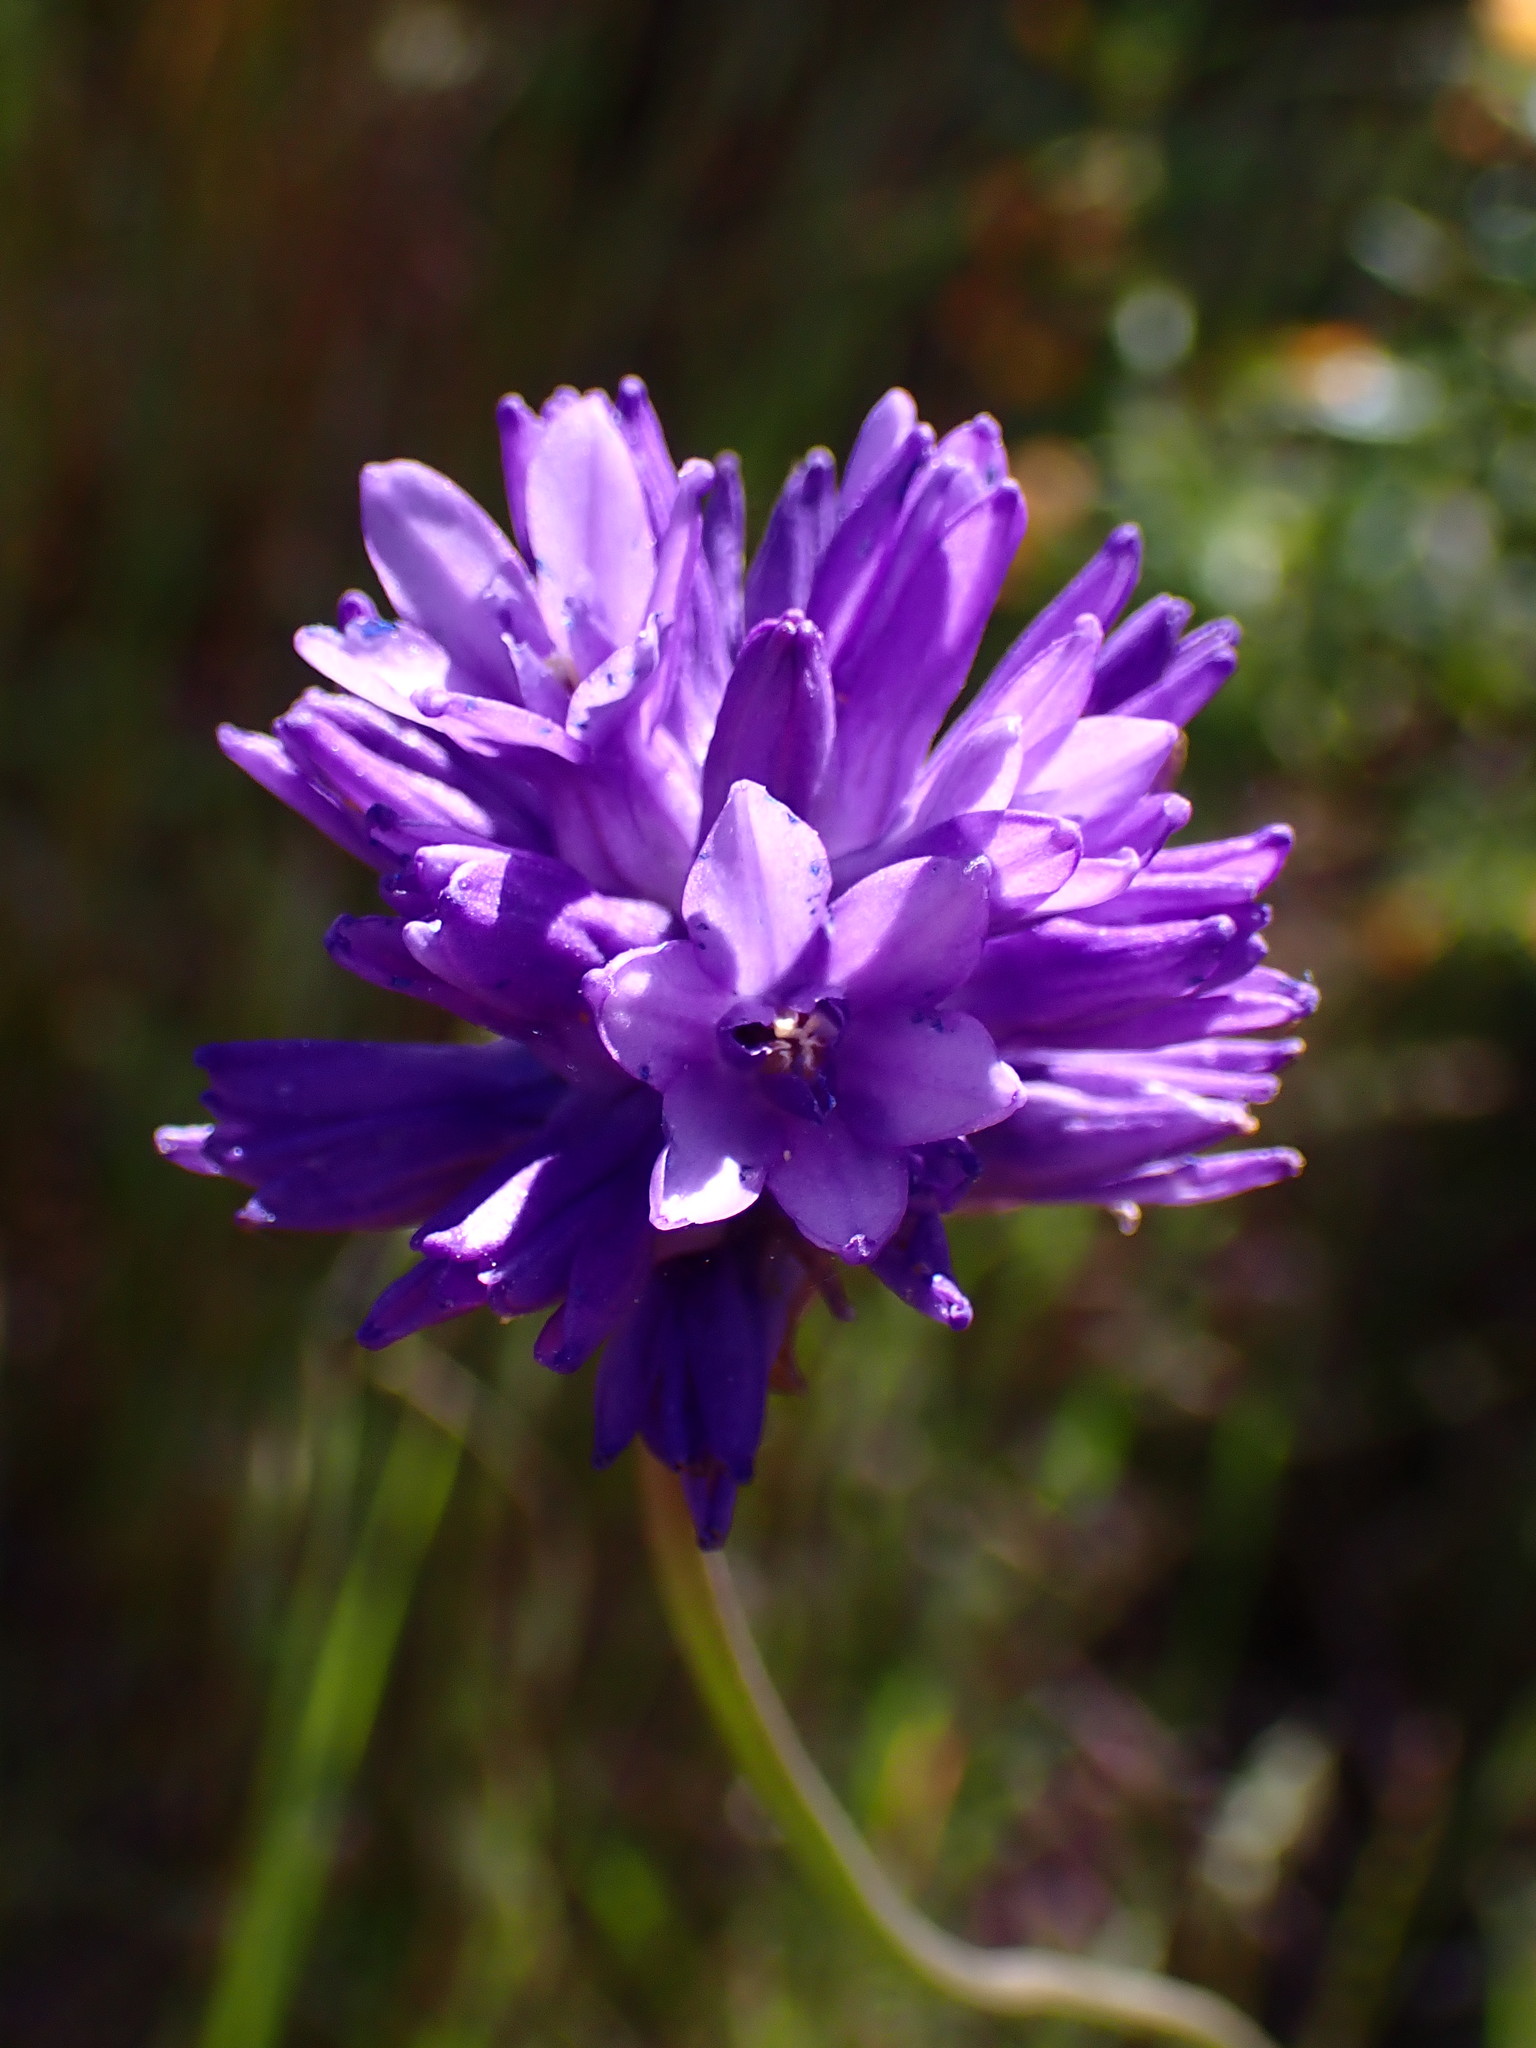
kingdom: Plantae
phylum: Tracheophyta
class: Liliopsida
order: Asparagales
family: Asparagaceae
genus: Dichelostemma
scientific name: Dichelostemma congestum
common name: Fork-tooth ookow
